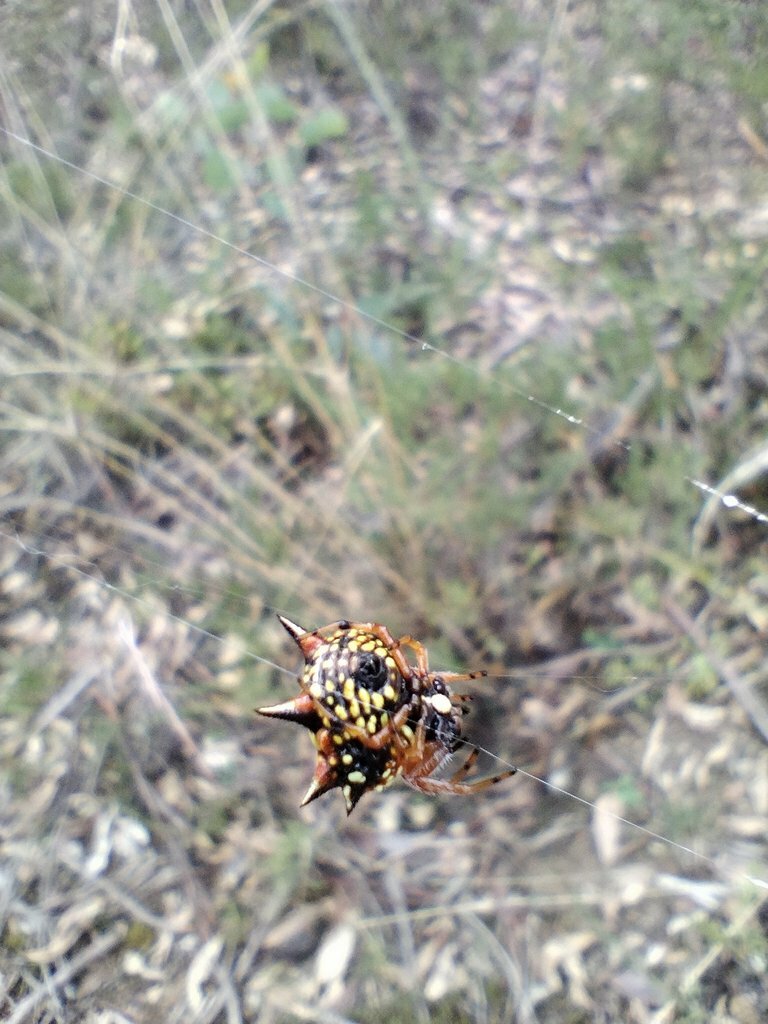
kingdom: Animalia
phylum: Arthropoda
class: Arachnida
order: Araneae
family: Araneidae
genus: Austracantha
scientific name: Austracantha minax
